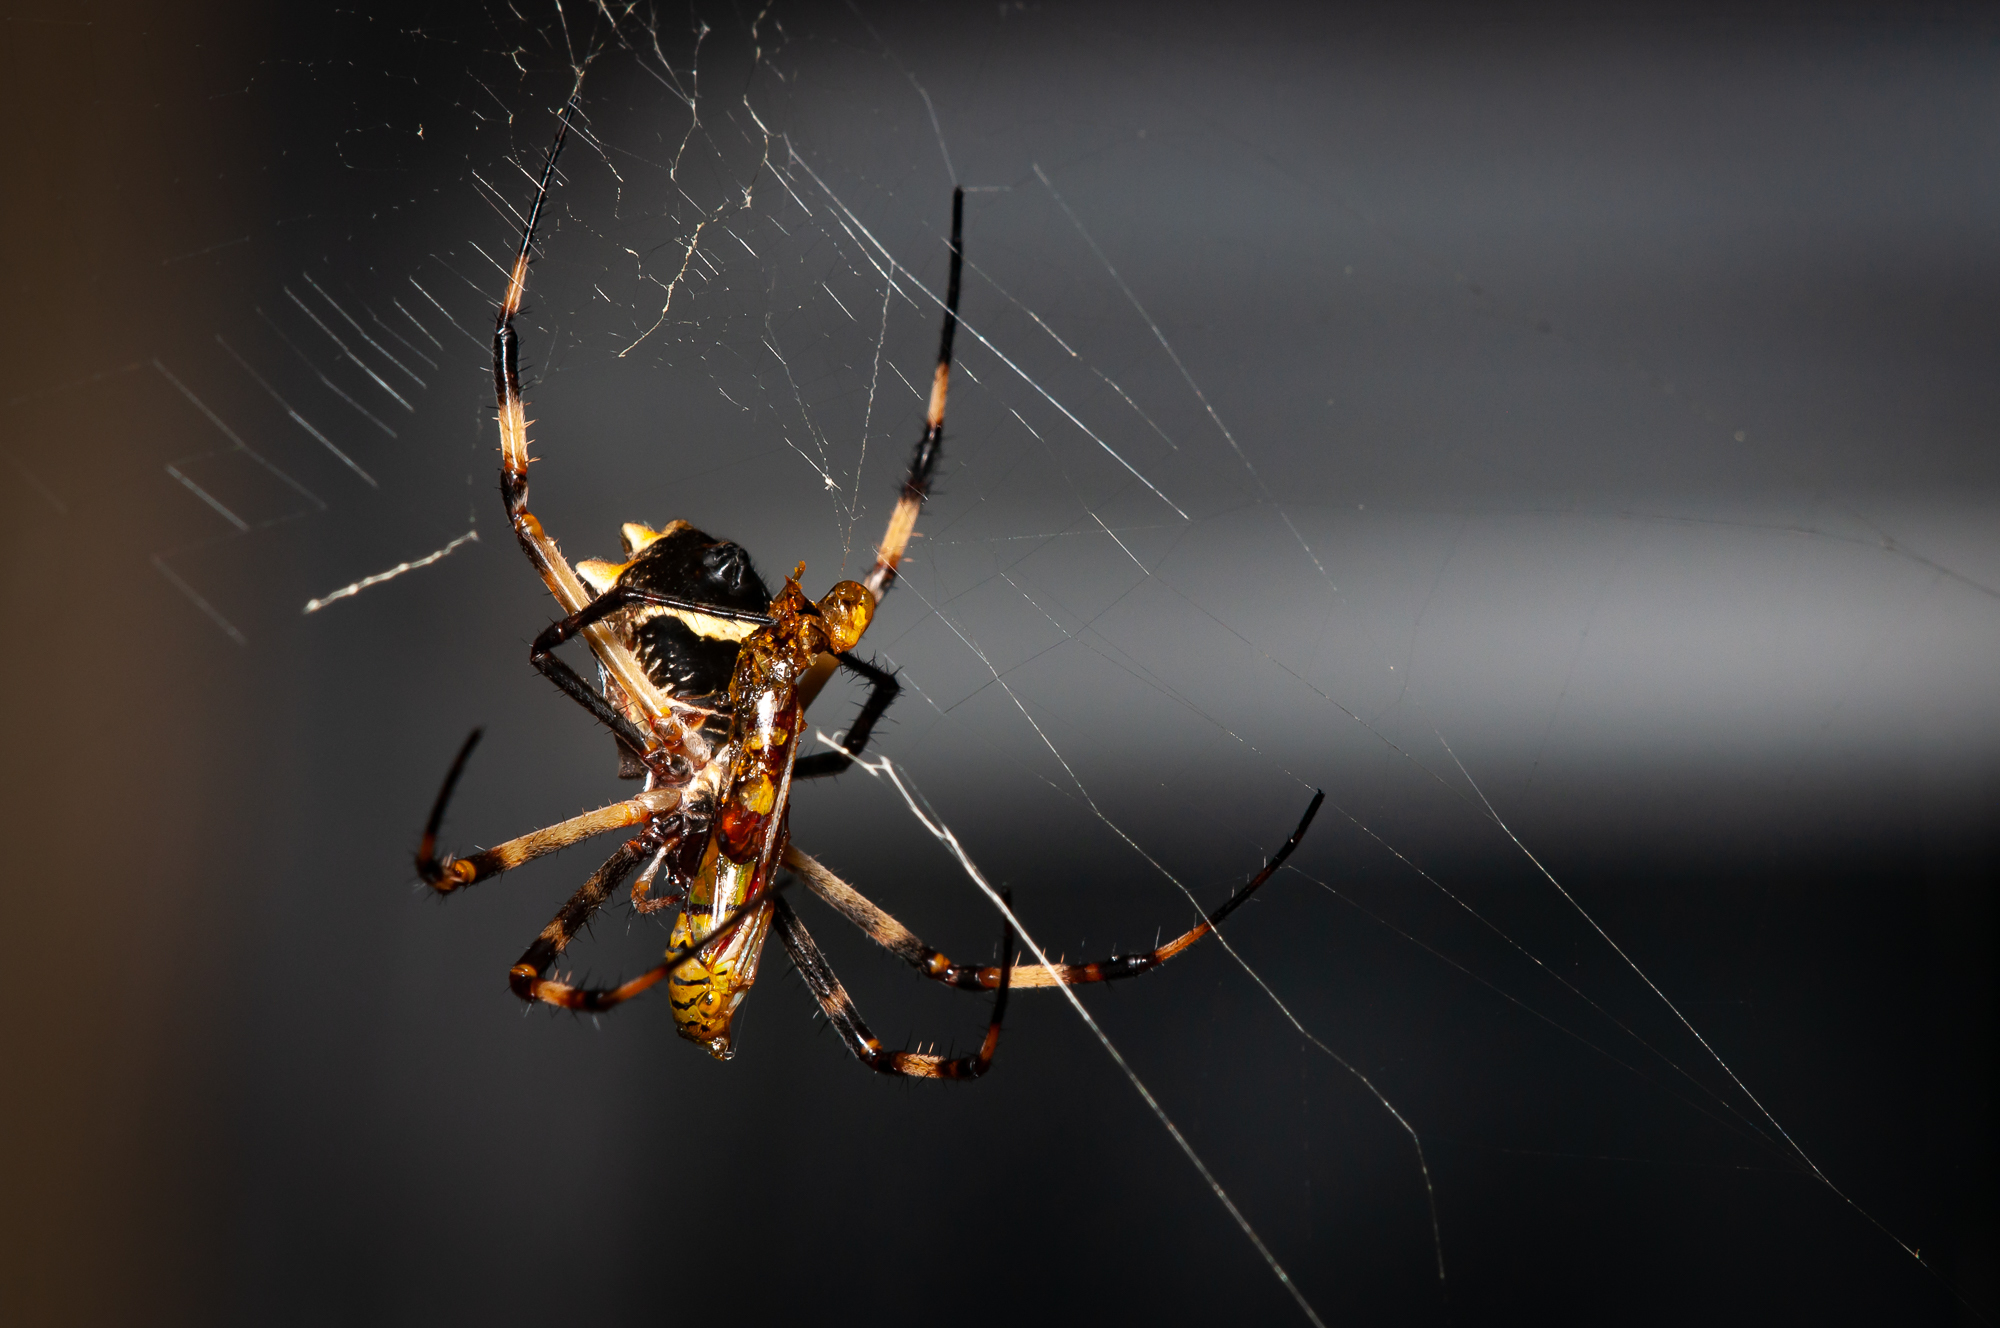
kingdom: Animalia
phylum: Arthropoda
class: Arachnida
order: Araneae
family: Araneidae
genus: Argiope
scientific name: Argiope argentata
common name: Orb weavers
